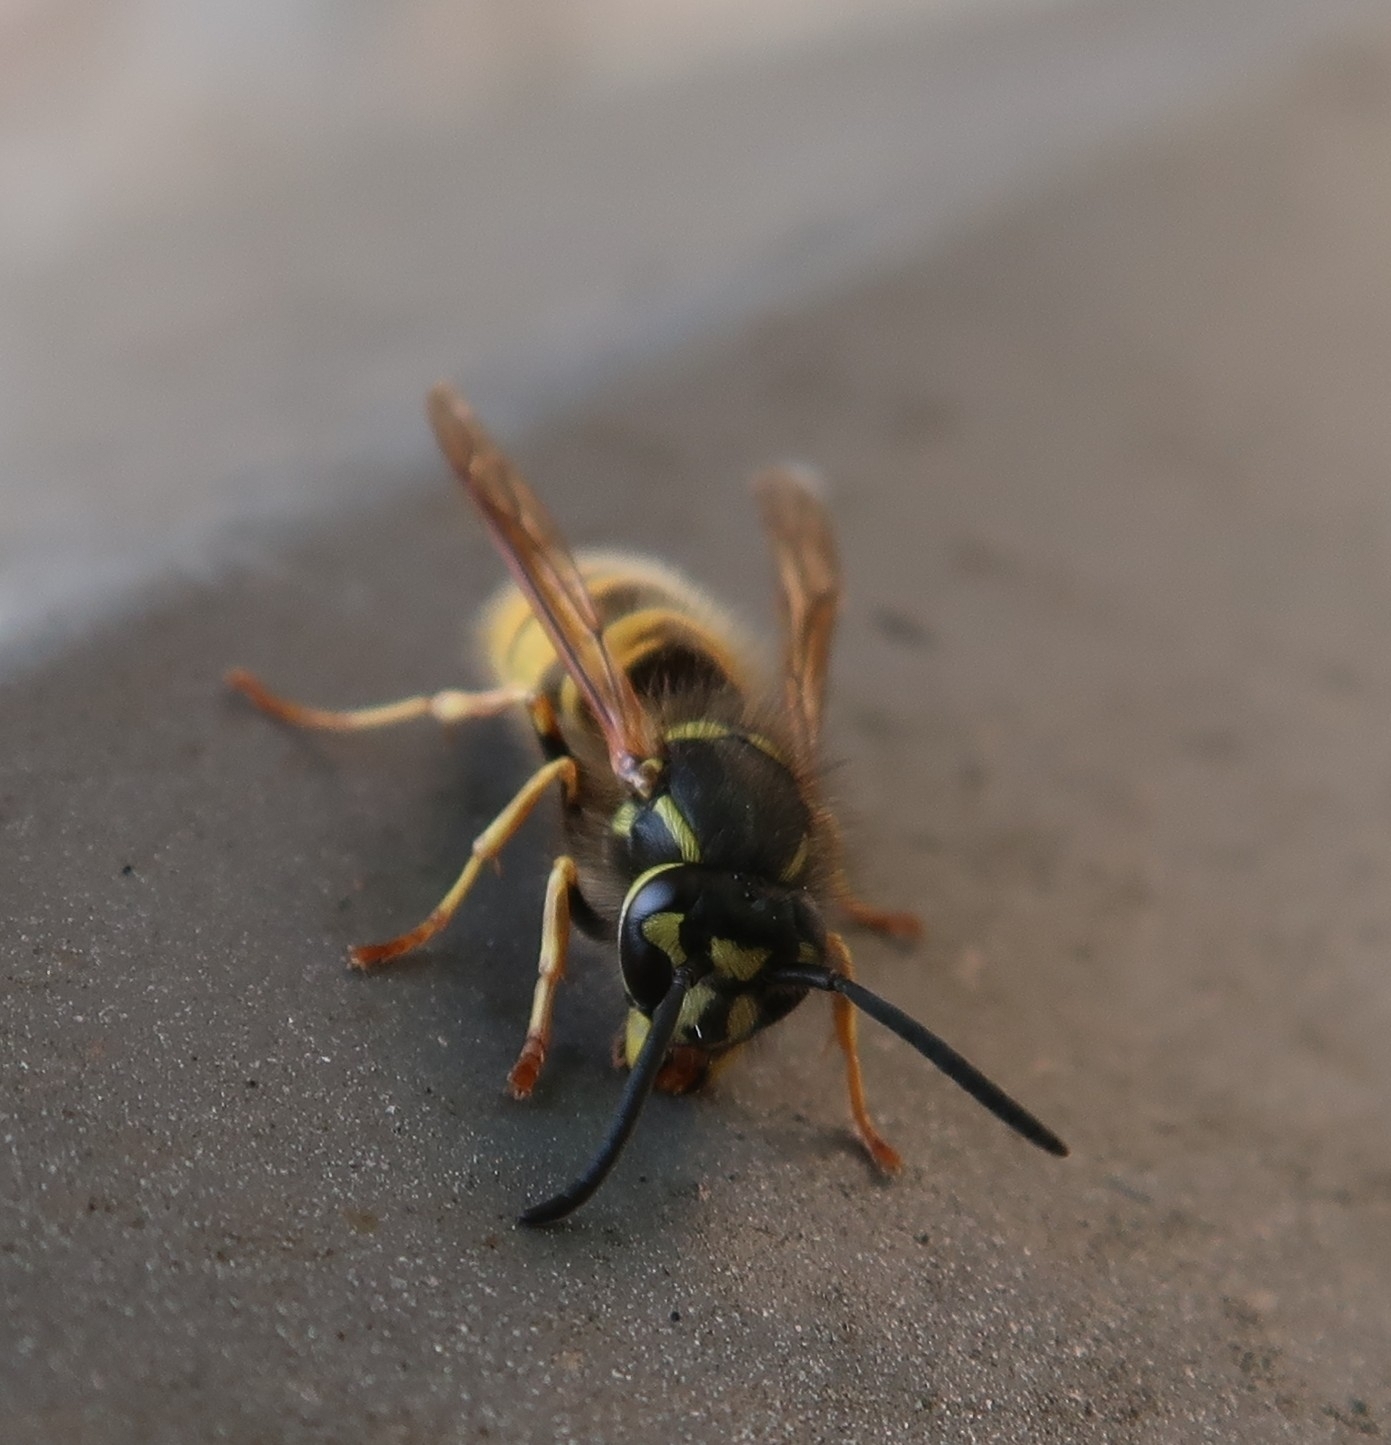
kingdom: Animalia
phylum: Arthropoda
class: Insecta
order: Hymenoptera
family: Vespidae
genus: Vespula
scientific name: Vespula vulgaris
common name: Common wasp
